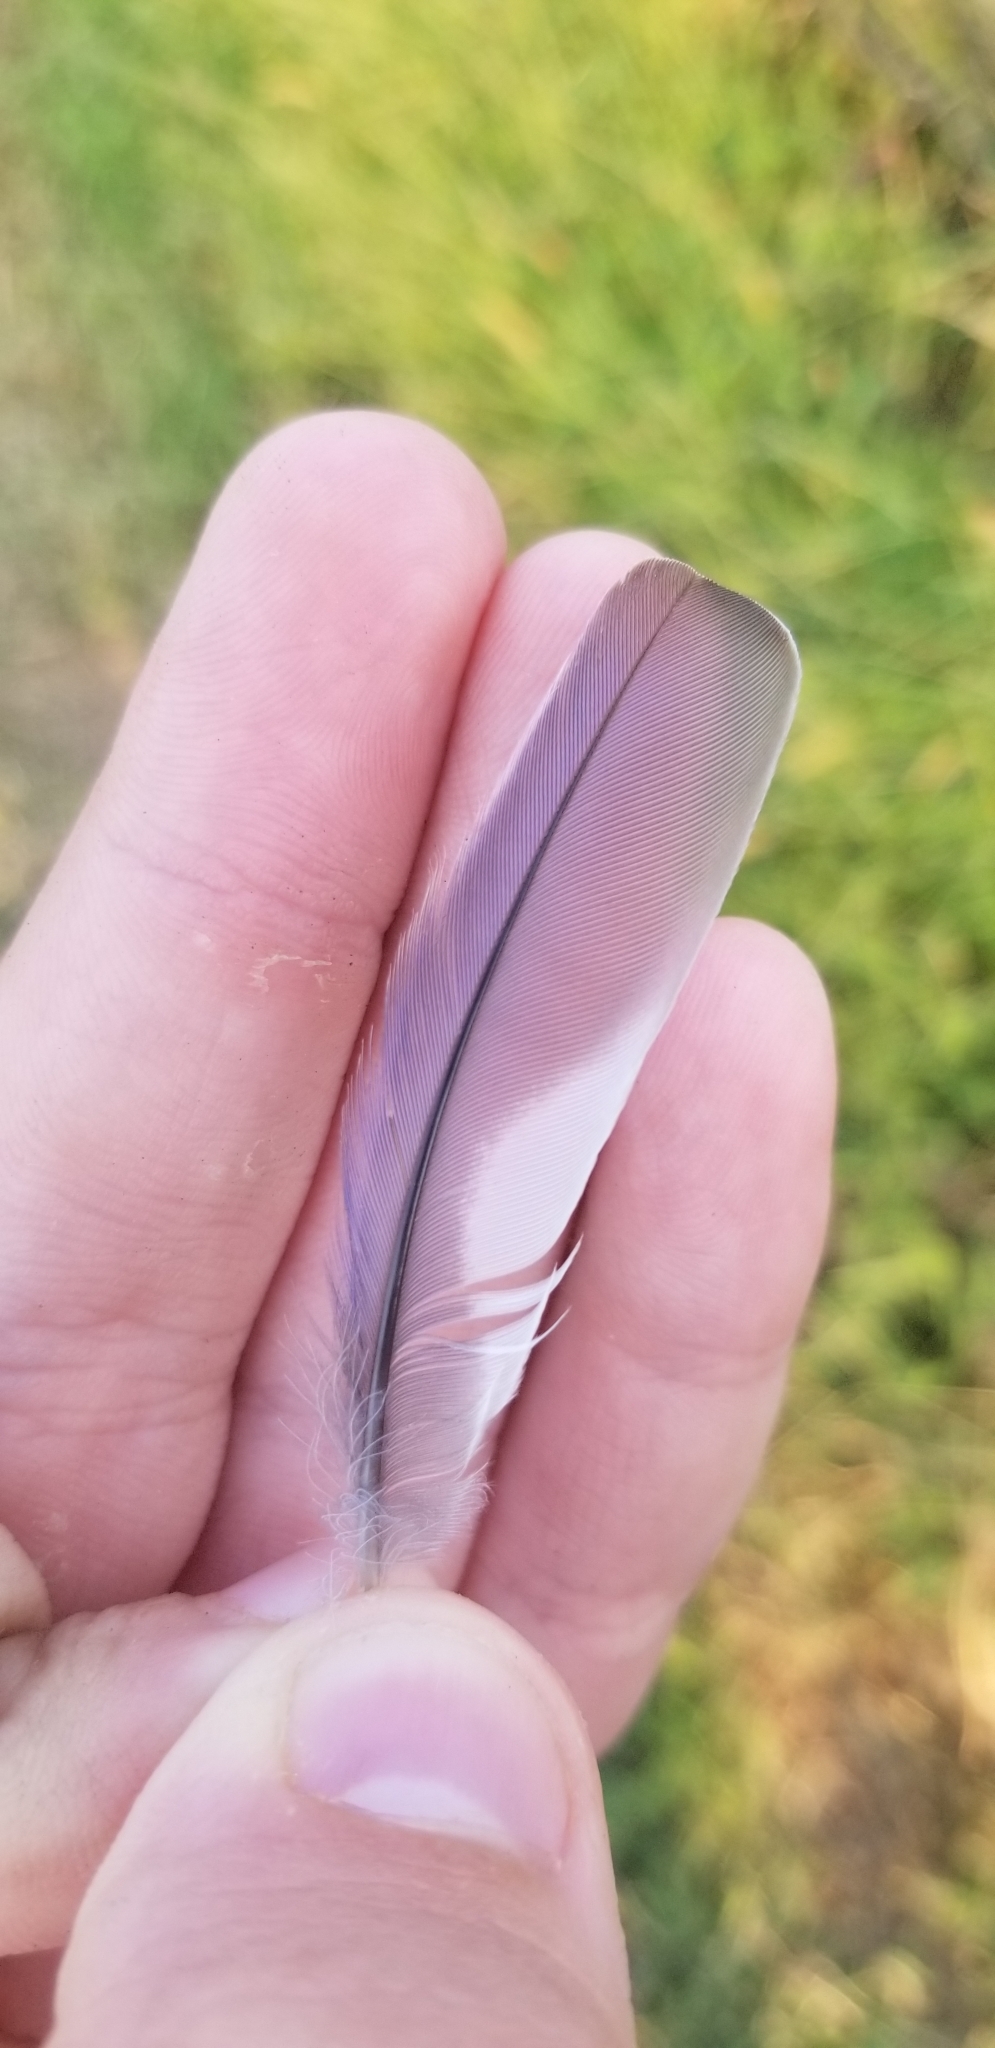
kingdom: Animalia
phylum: Chordata
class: Aves
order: Passeriformes
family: Turdidae
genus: Sialia
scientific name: Sialia sialis
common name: Eastern bluebird
